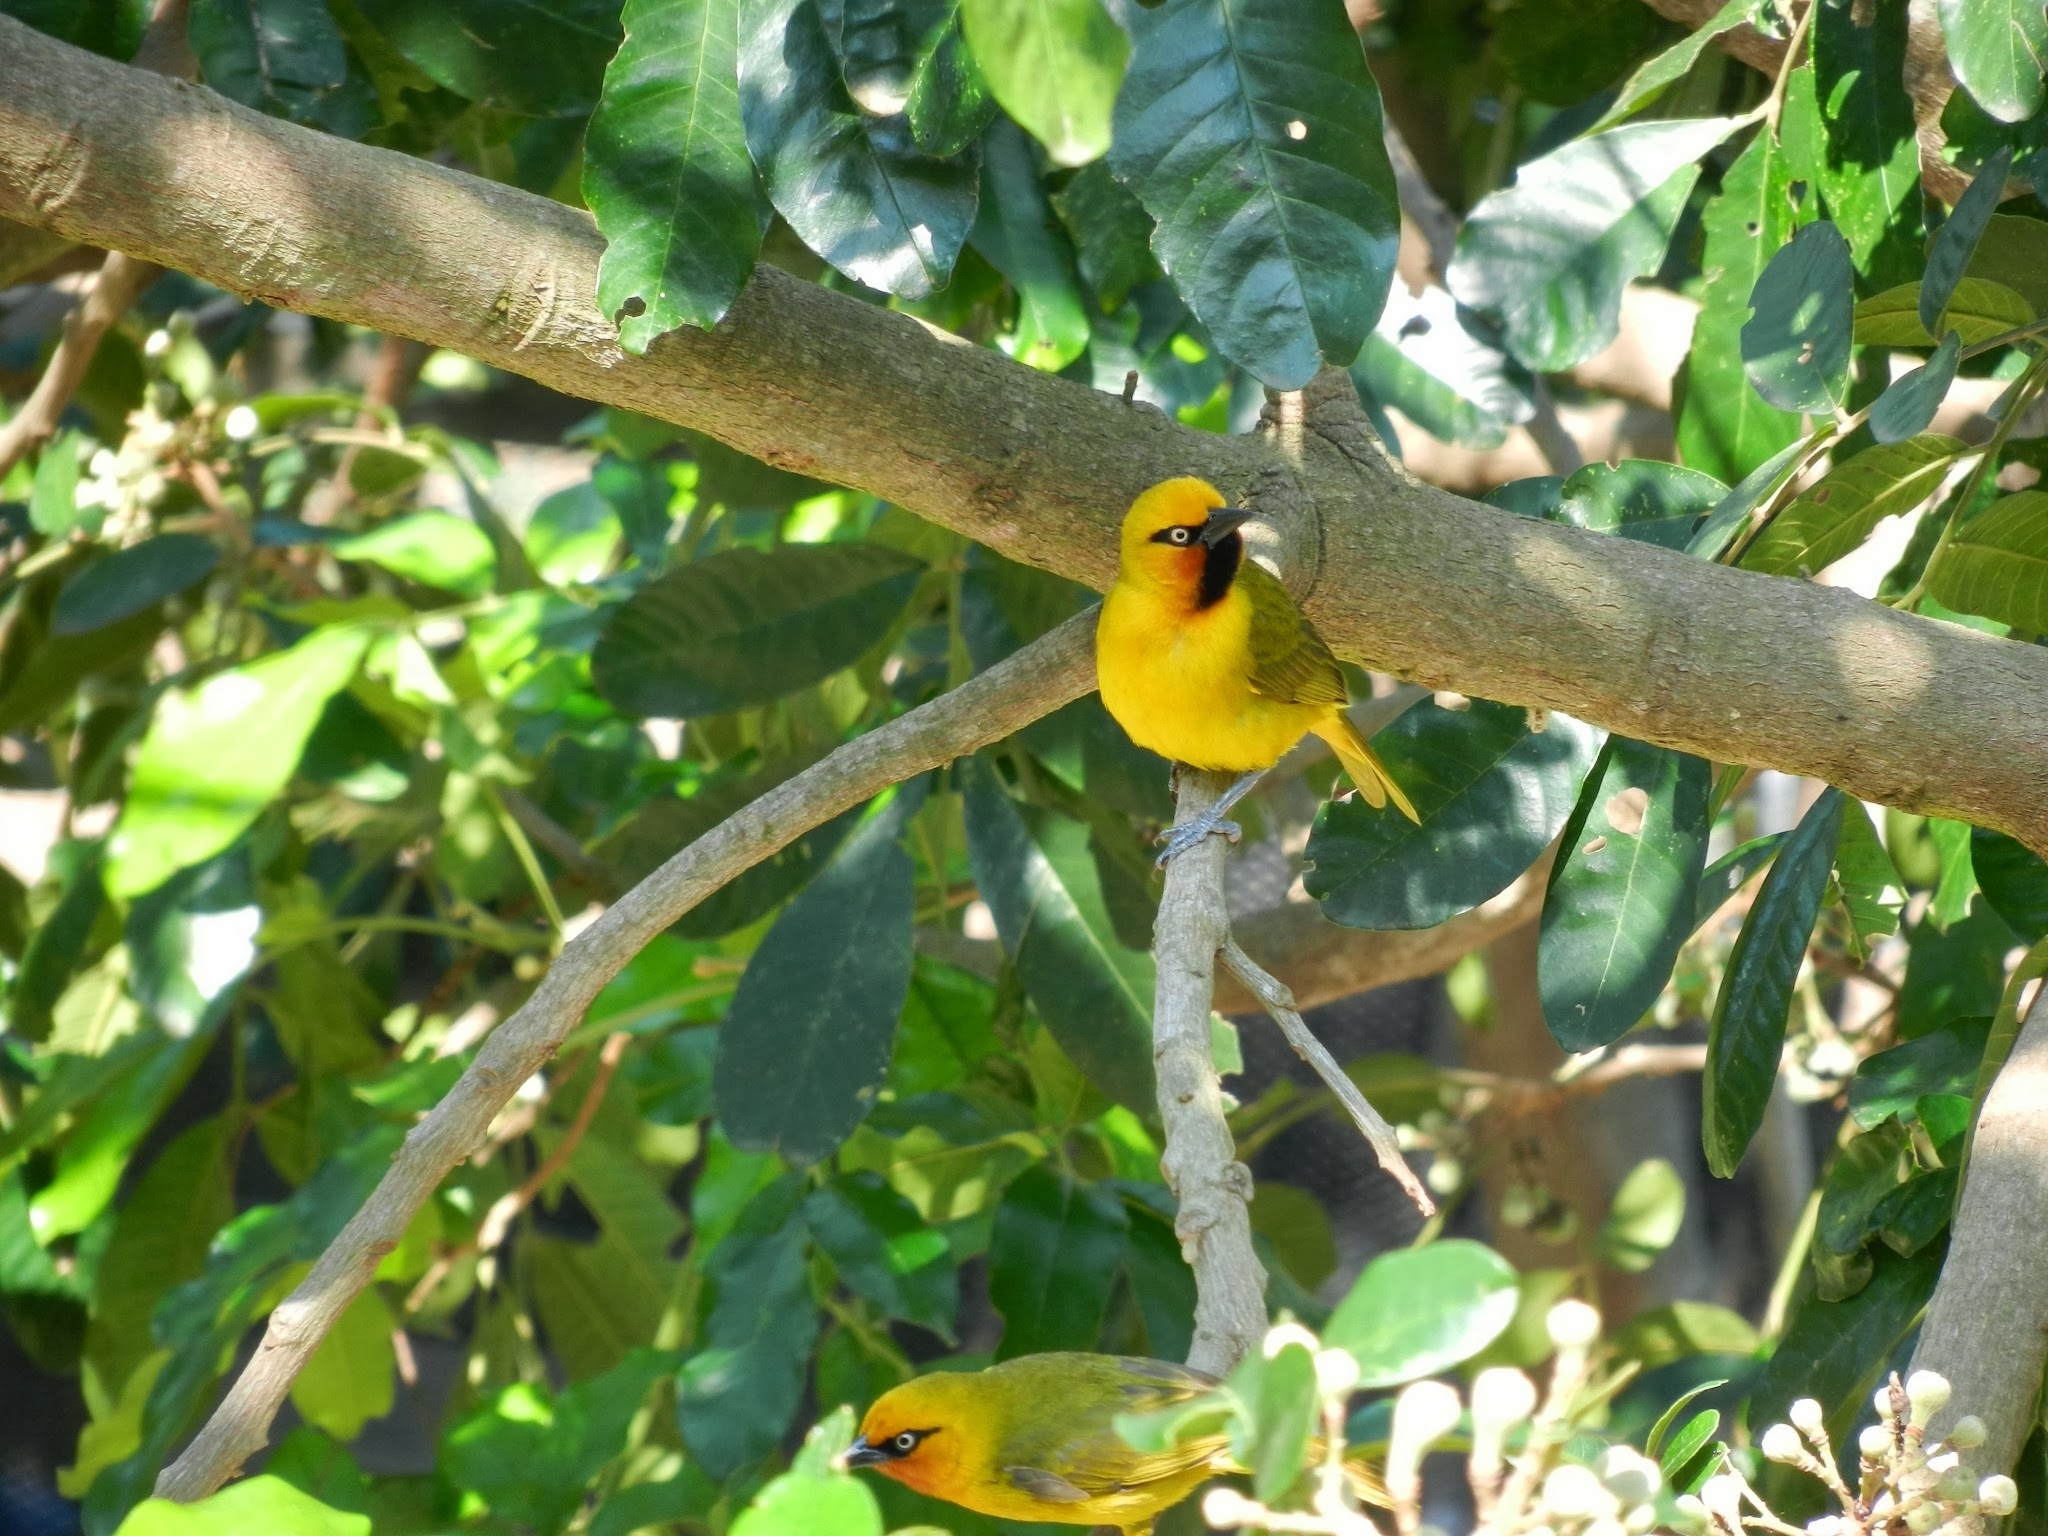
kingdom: Animalia
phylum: Chordata
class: Aves
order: Passeriformes
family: Ploceidae
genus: Ploceus
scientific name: Ploceus ocularis
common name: Spectacled weaver
